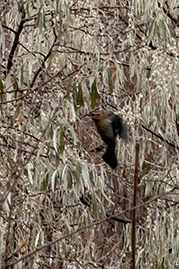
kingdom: Animalia
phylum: Chordata
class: Aves
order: Passeriformes
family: Icteridae
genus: Euphagus
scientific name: Euphagus carolinus
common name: Rusty blackbird
